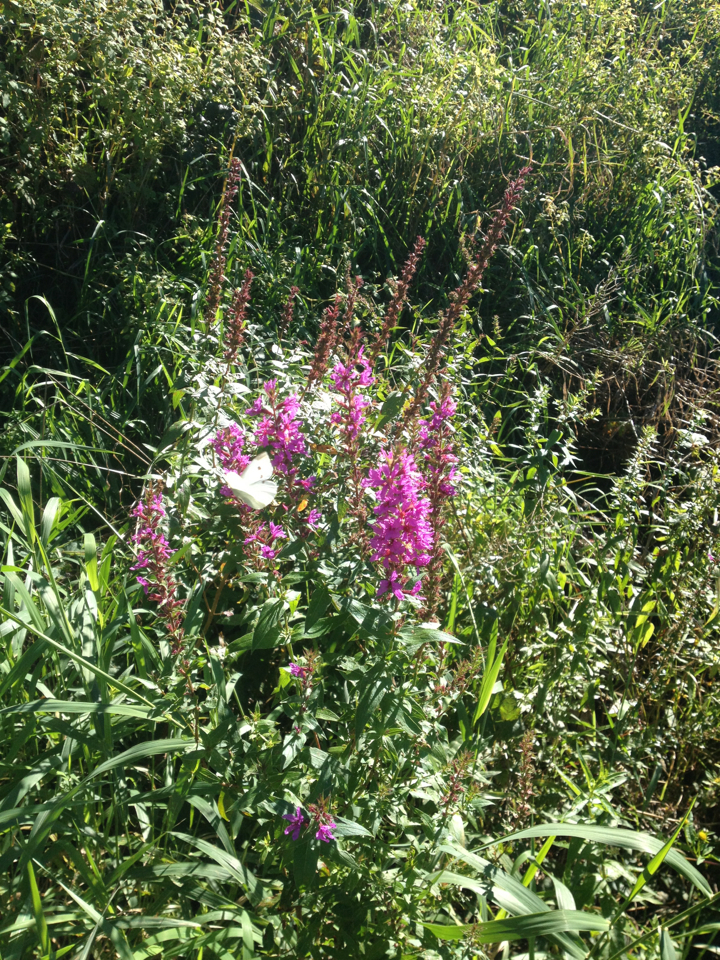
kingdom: Animalia
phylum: Arthropoda
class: Insecta
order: Lepidoptera
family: Pieridae
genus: Pieris
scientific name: Pieris rapae
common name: Small white
